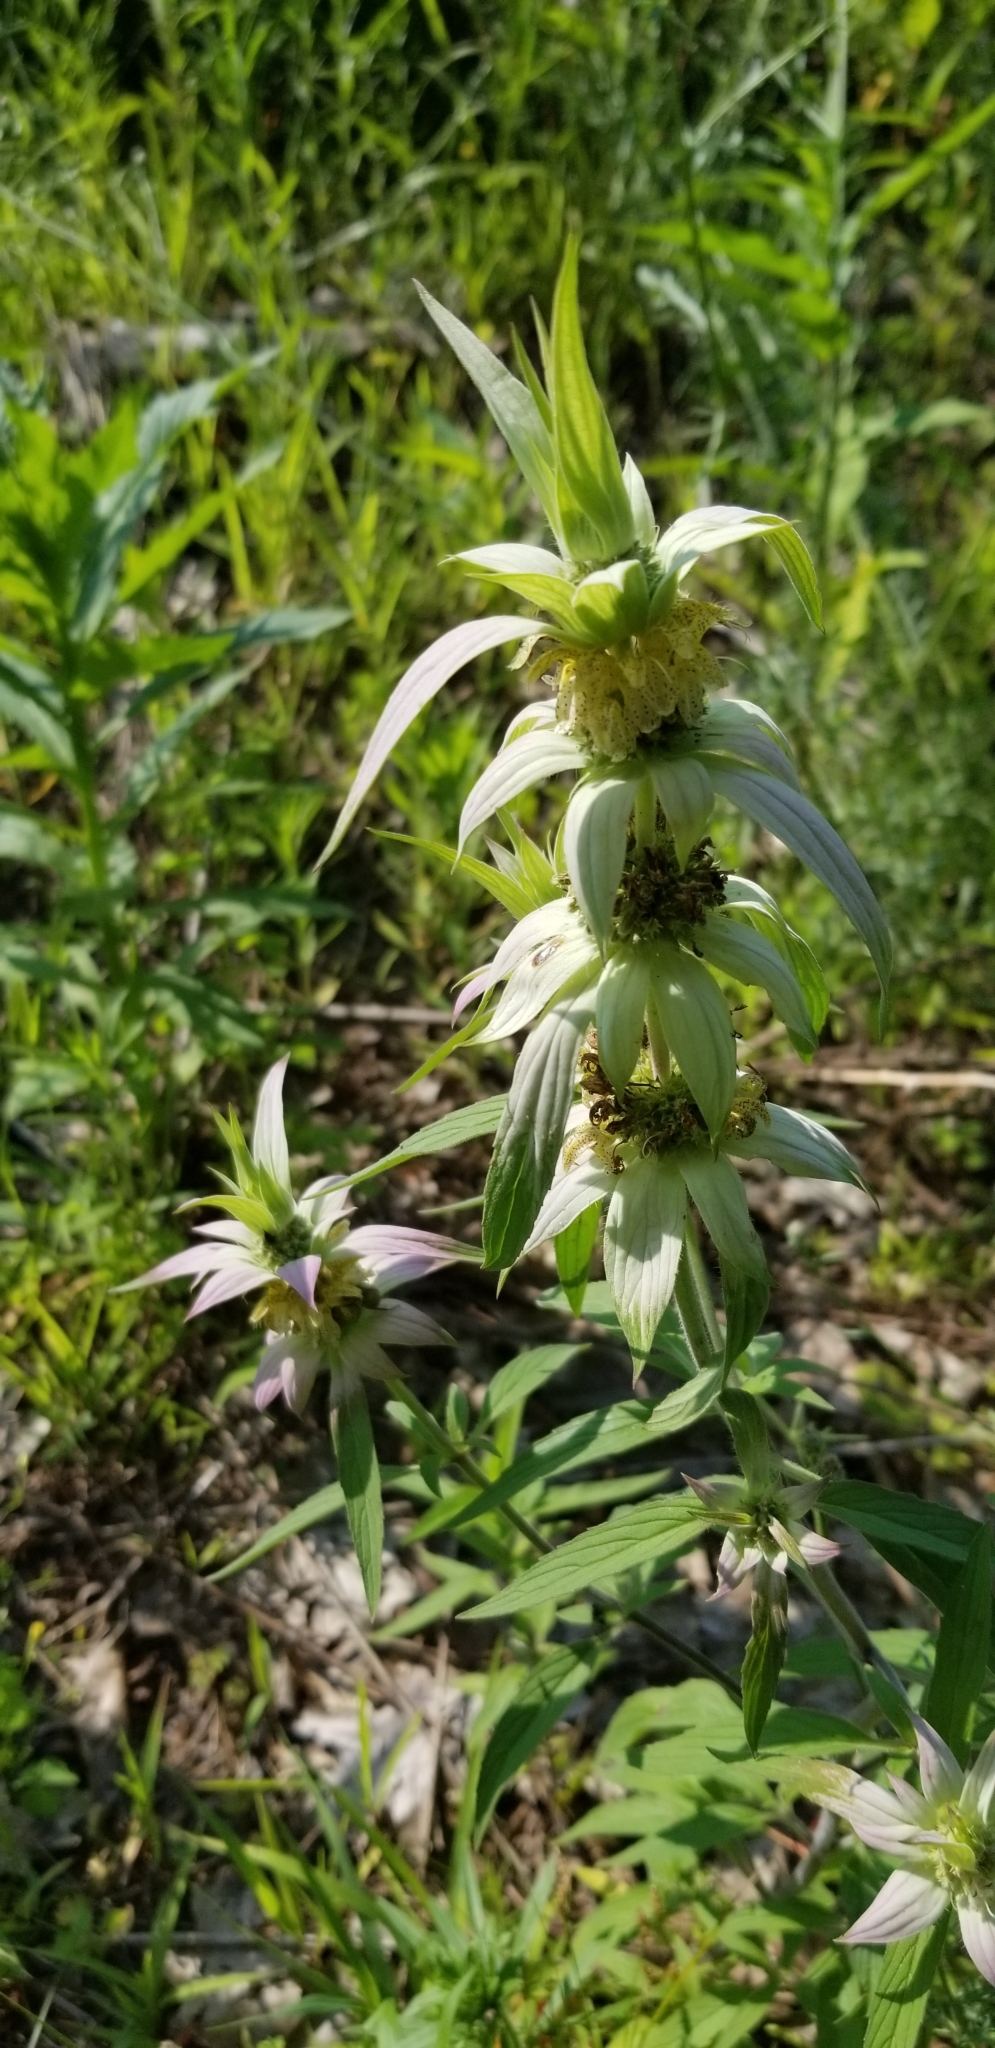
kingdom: Plantae
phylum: Tracheophyta
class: Magnoliopsida
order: Lamiales
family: Lamiaceae
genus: Monarda
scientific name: Monarda punctata
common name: Dotted monarda
